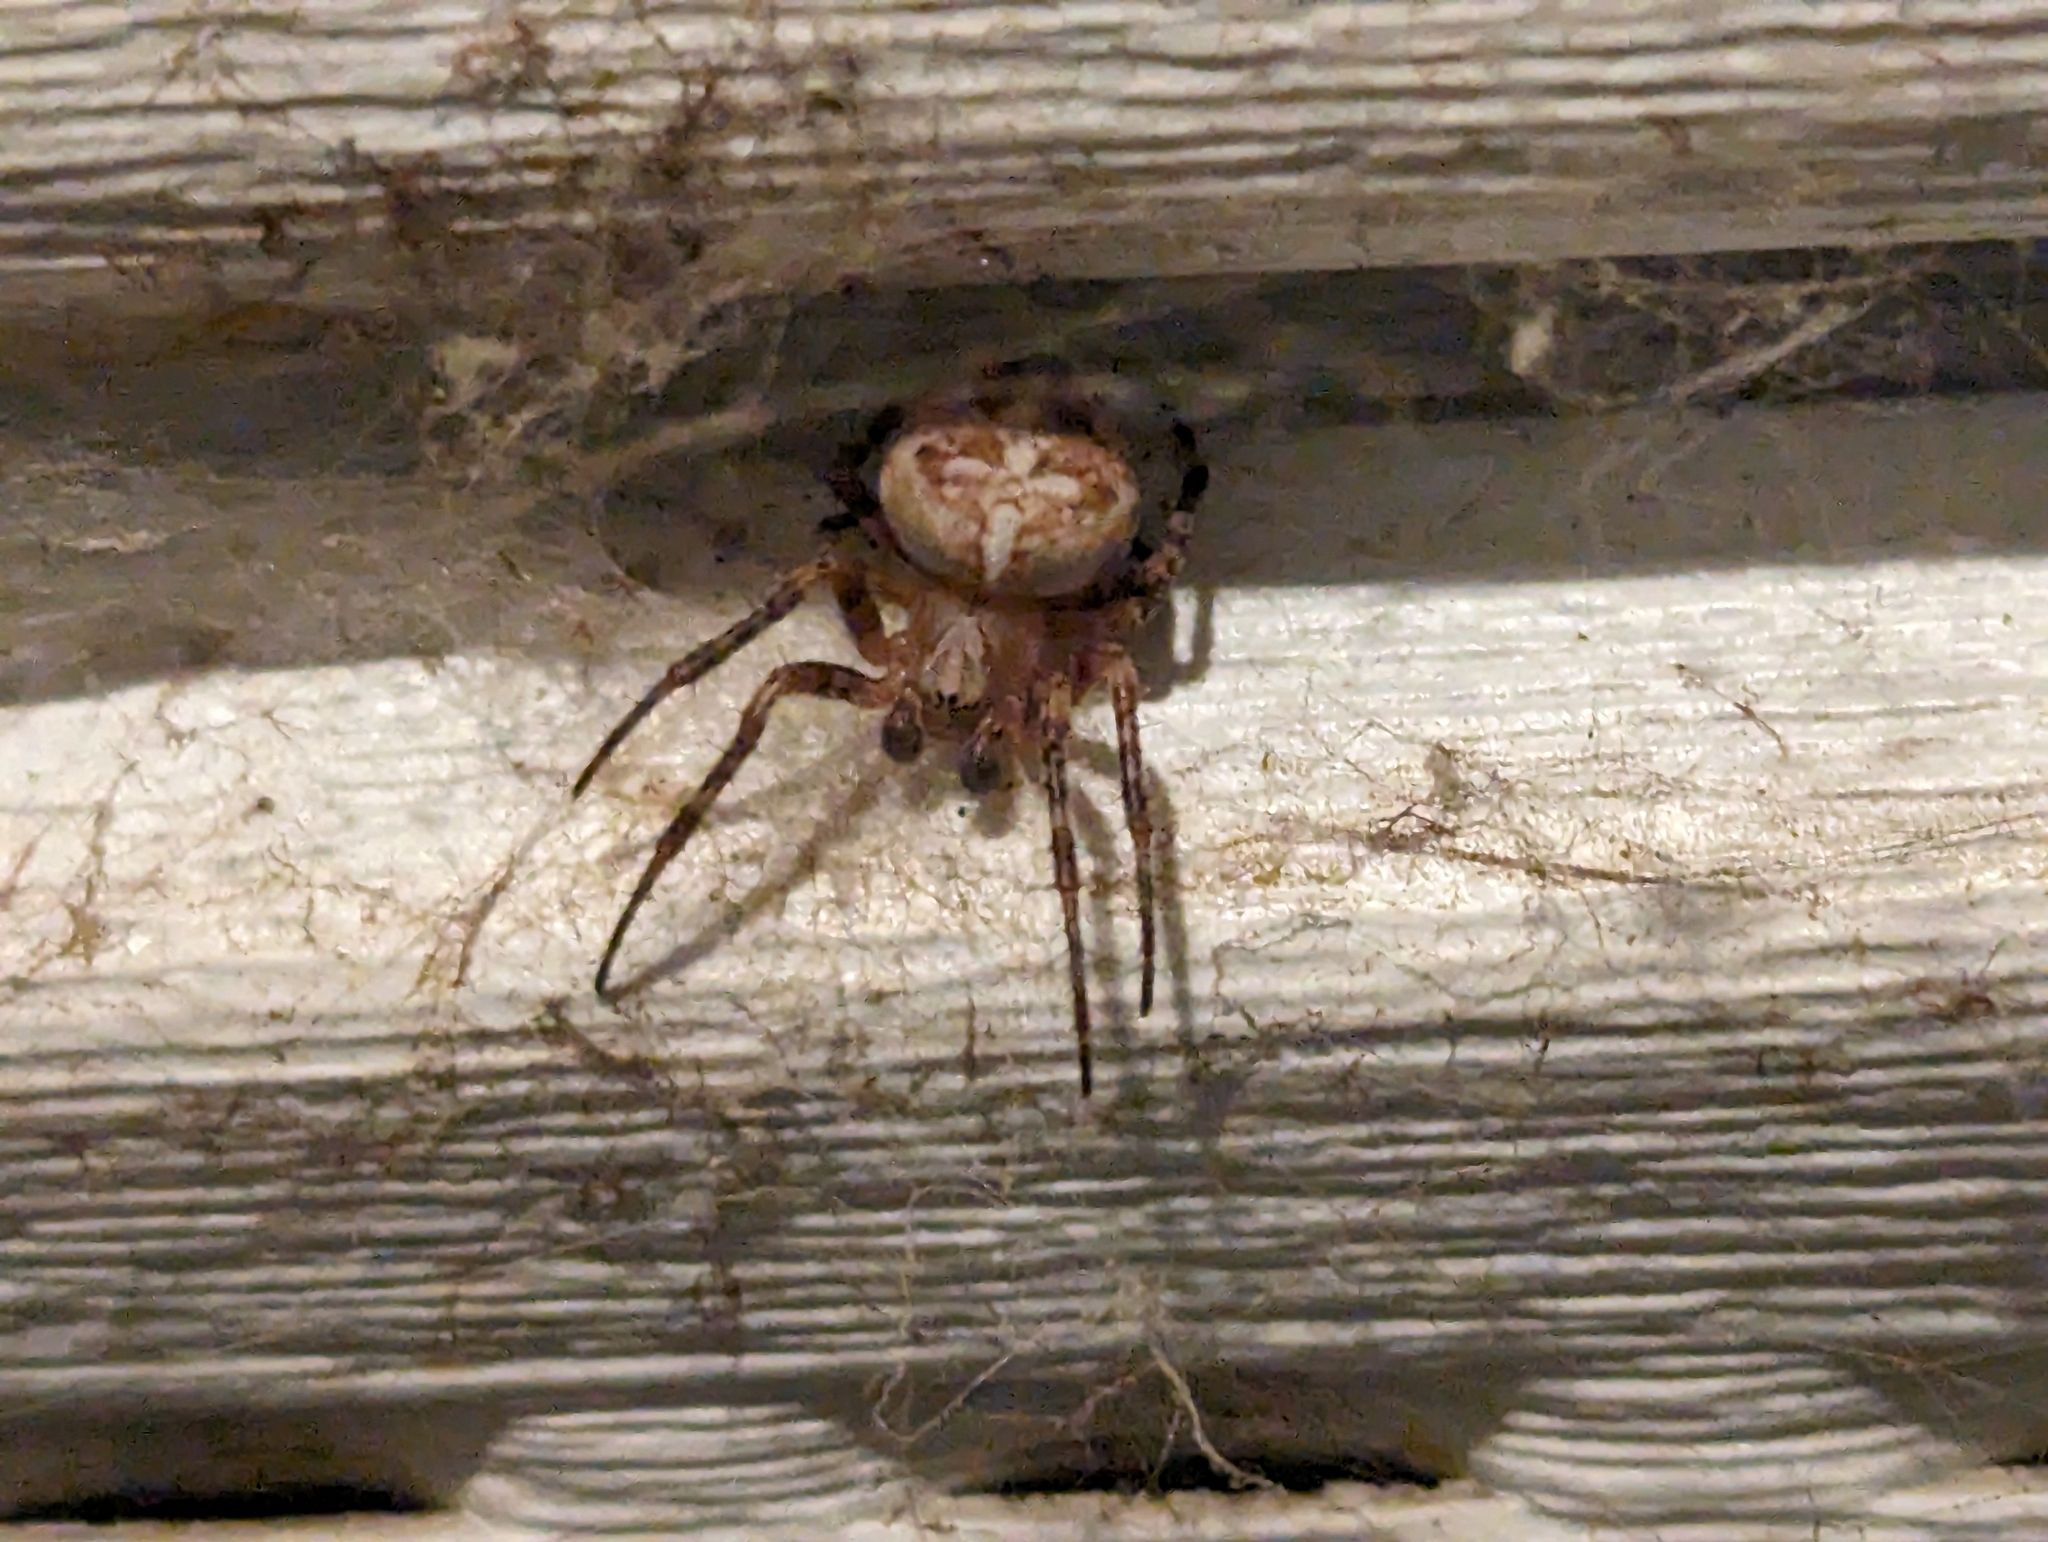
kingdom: Animalia
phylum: Arthropoda
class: Arachnida
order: Araneae
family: Araneidae
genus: Araneus
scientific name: Araneus diadematus
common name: Cross orbweaver
